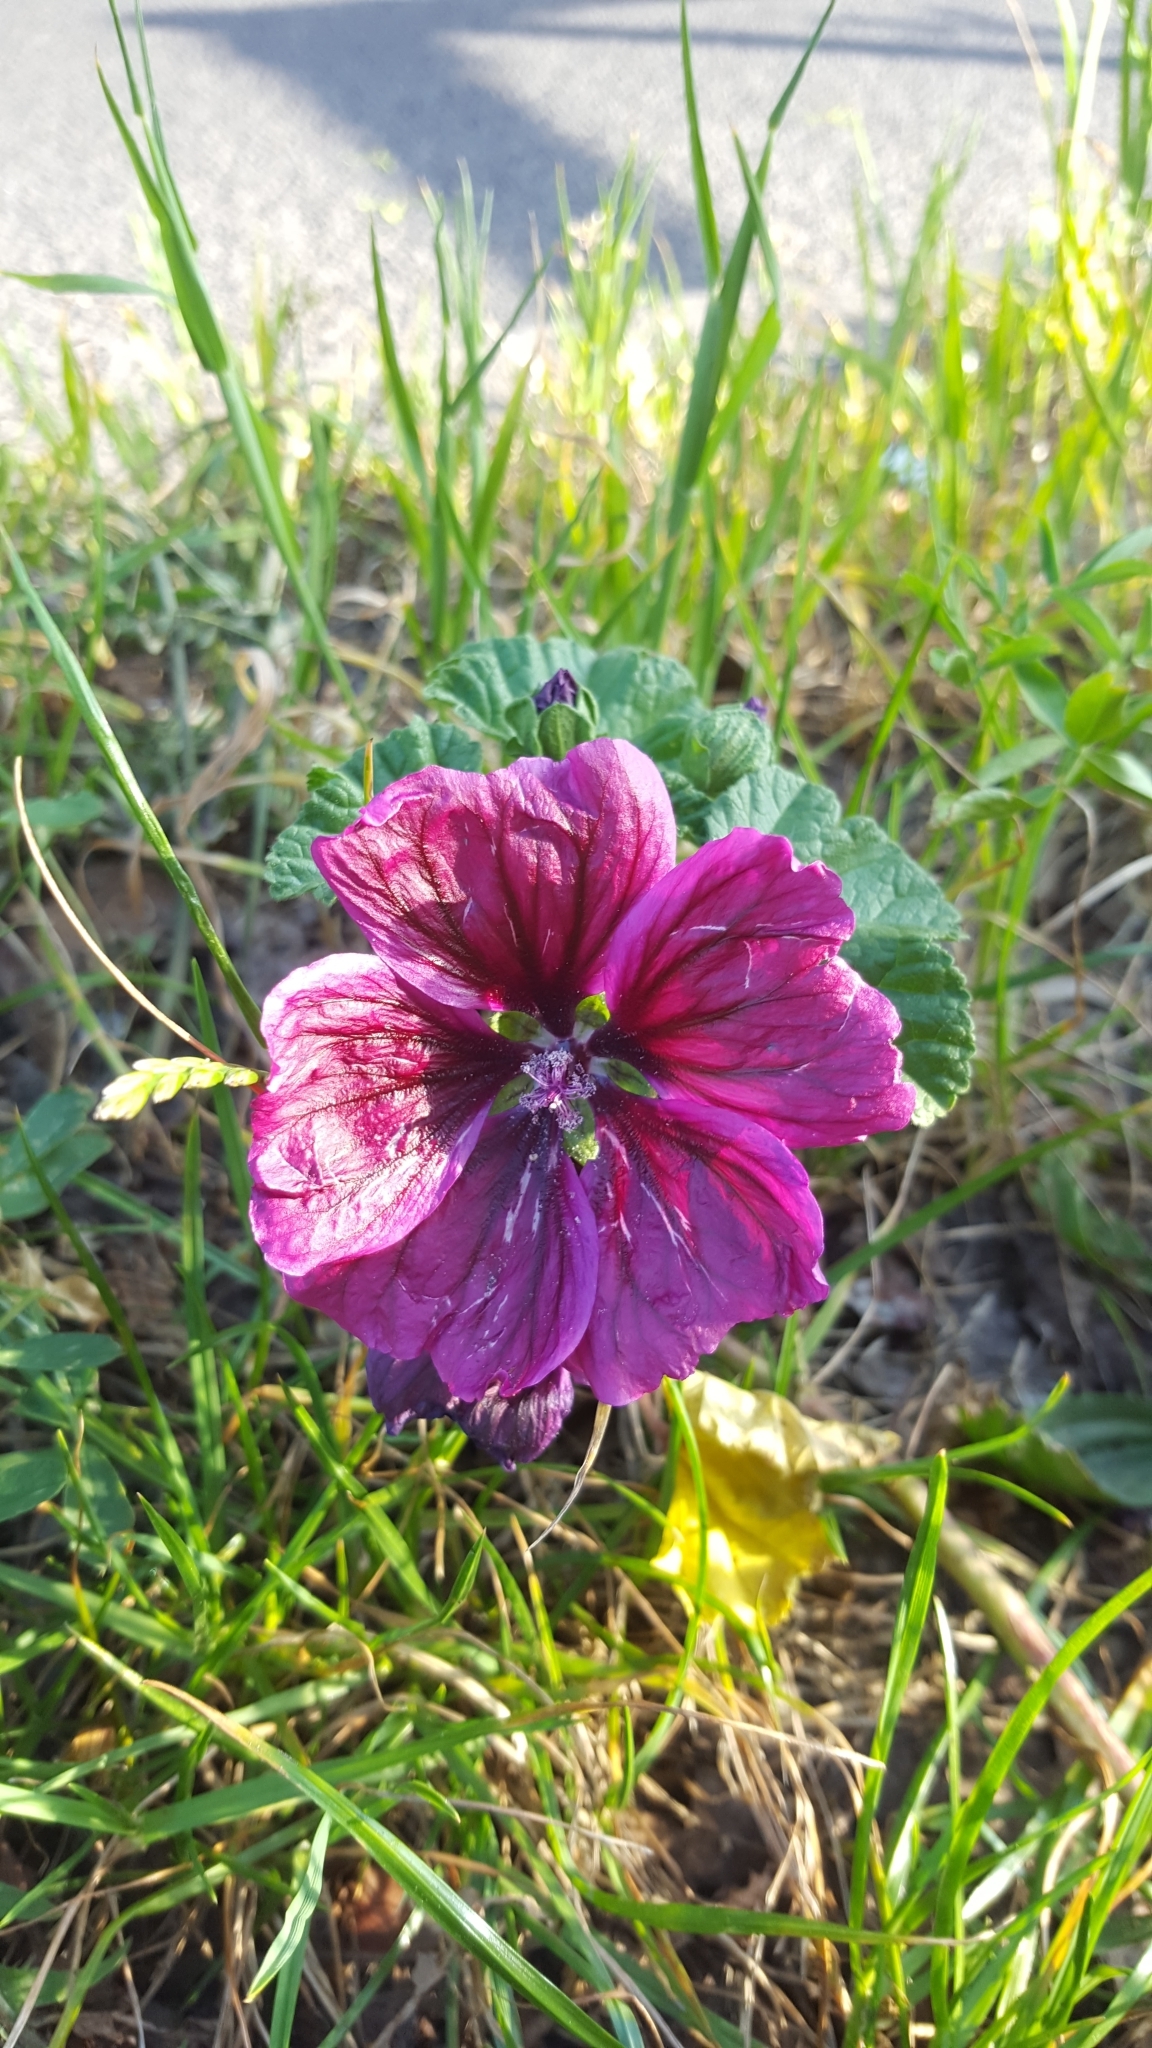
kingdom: Plantae
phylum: Tracheophyta
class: Magnoliopsida
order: Malvales
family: Malvaceae
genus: Malva
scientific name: Malva sylvestris
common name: Common mallow
